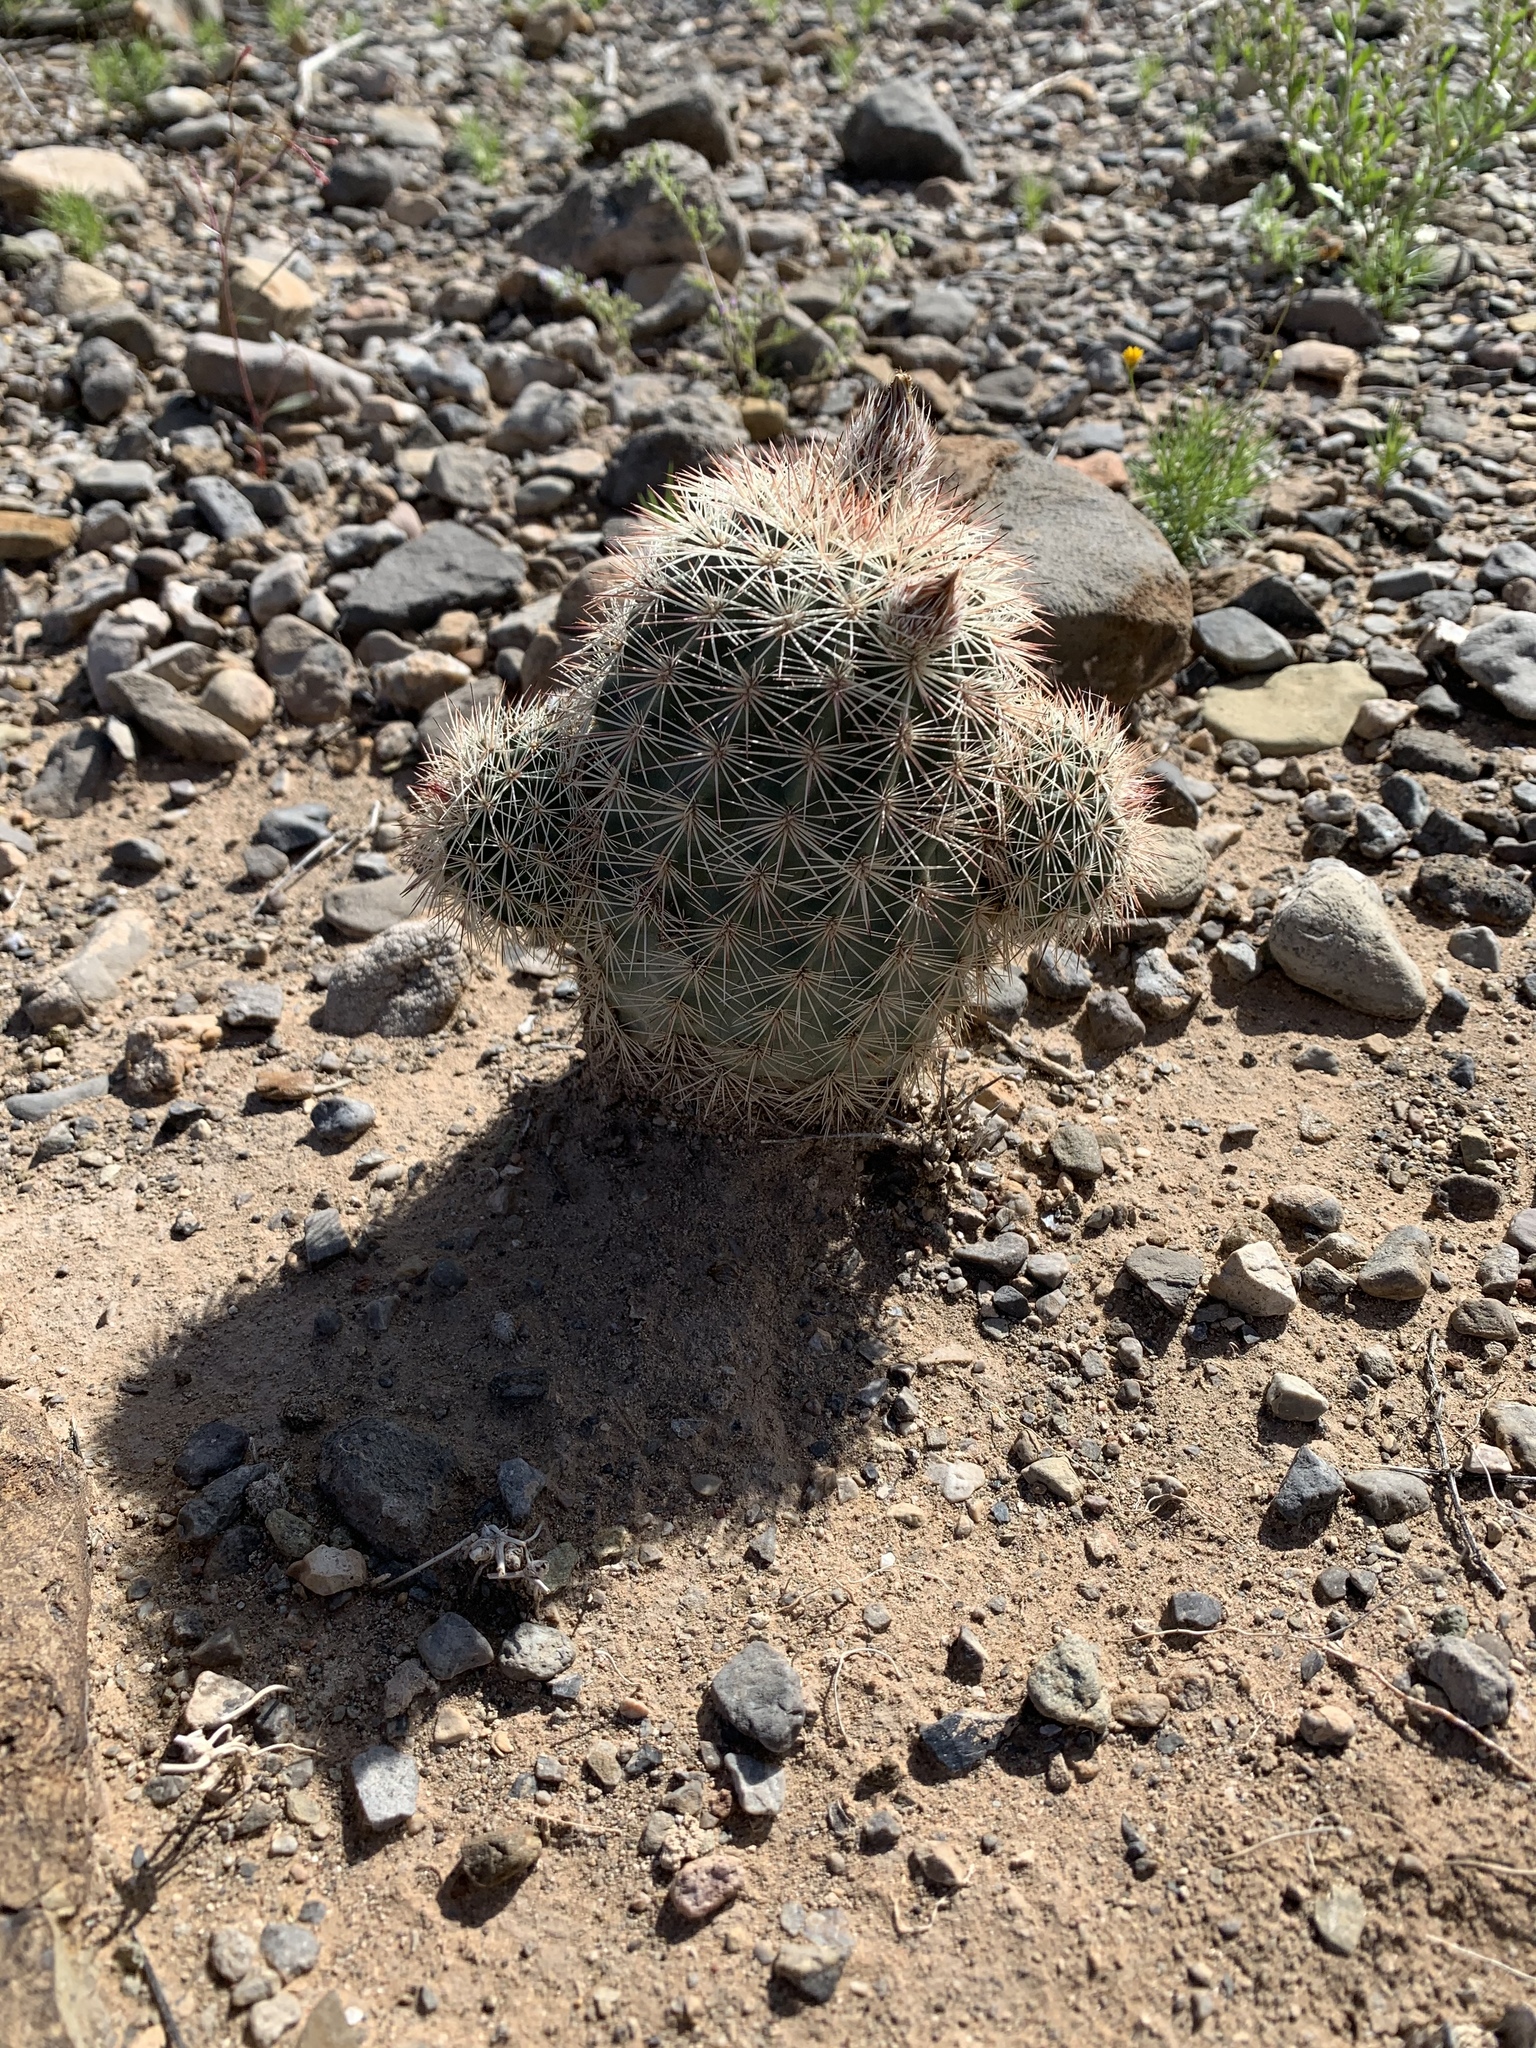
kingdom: Plantae
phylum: Tracheophyta
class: Magnoliopsida
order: Caryophyllales
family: Cactaceae
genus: Echinocereus
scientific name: Echinocereus dasyacanthus
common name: Spiny hedgehog cactus
